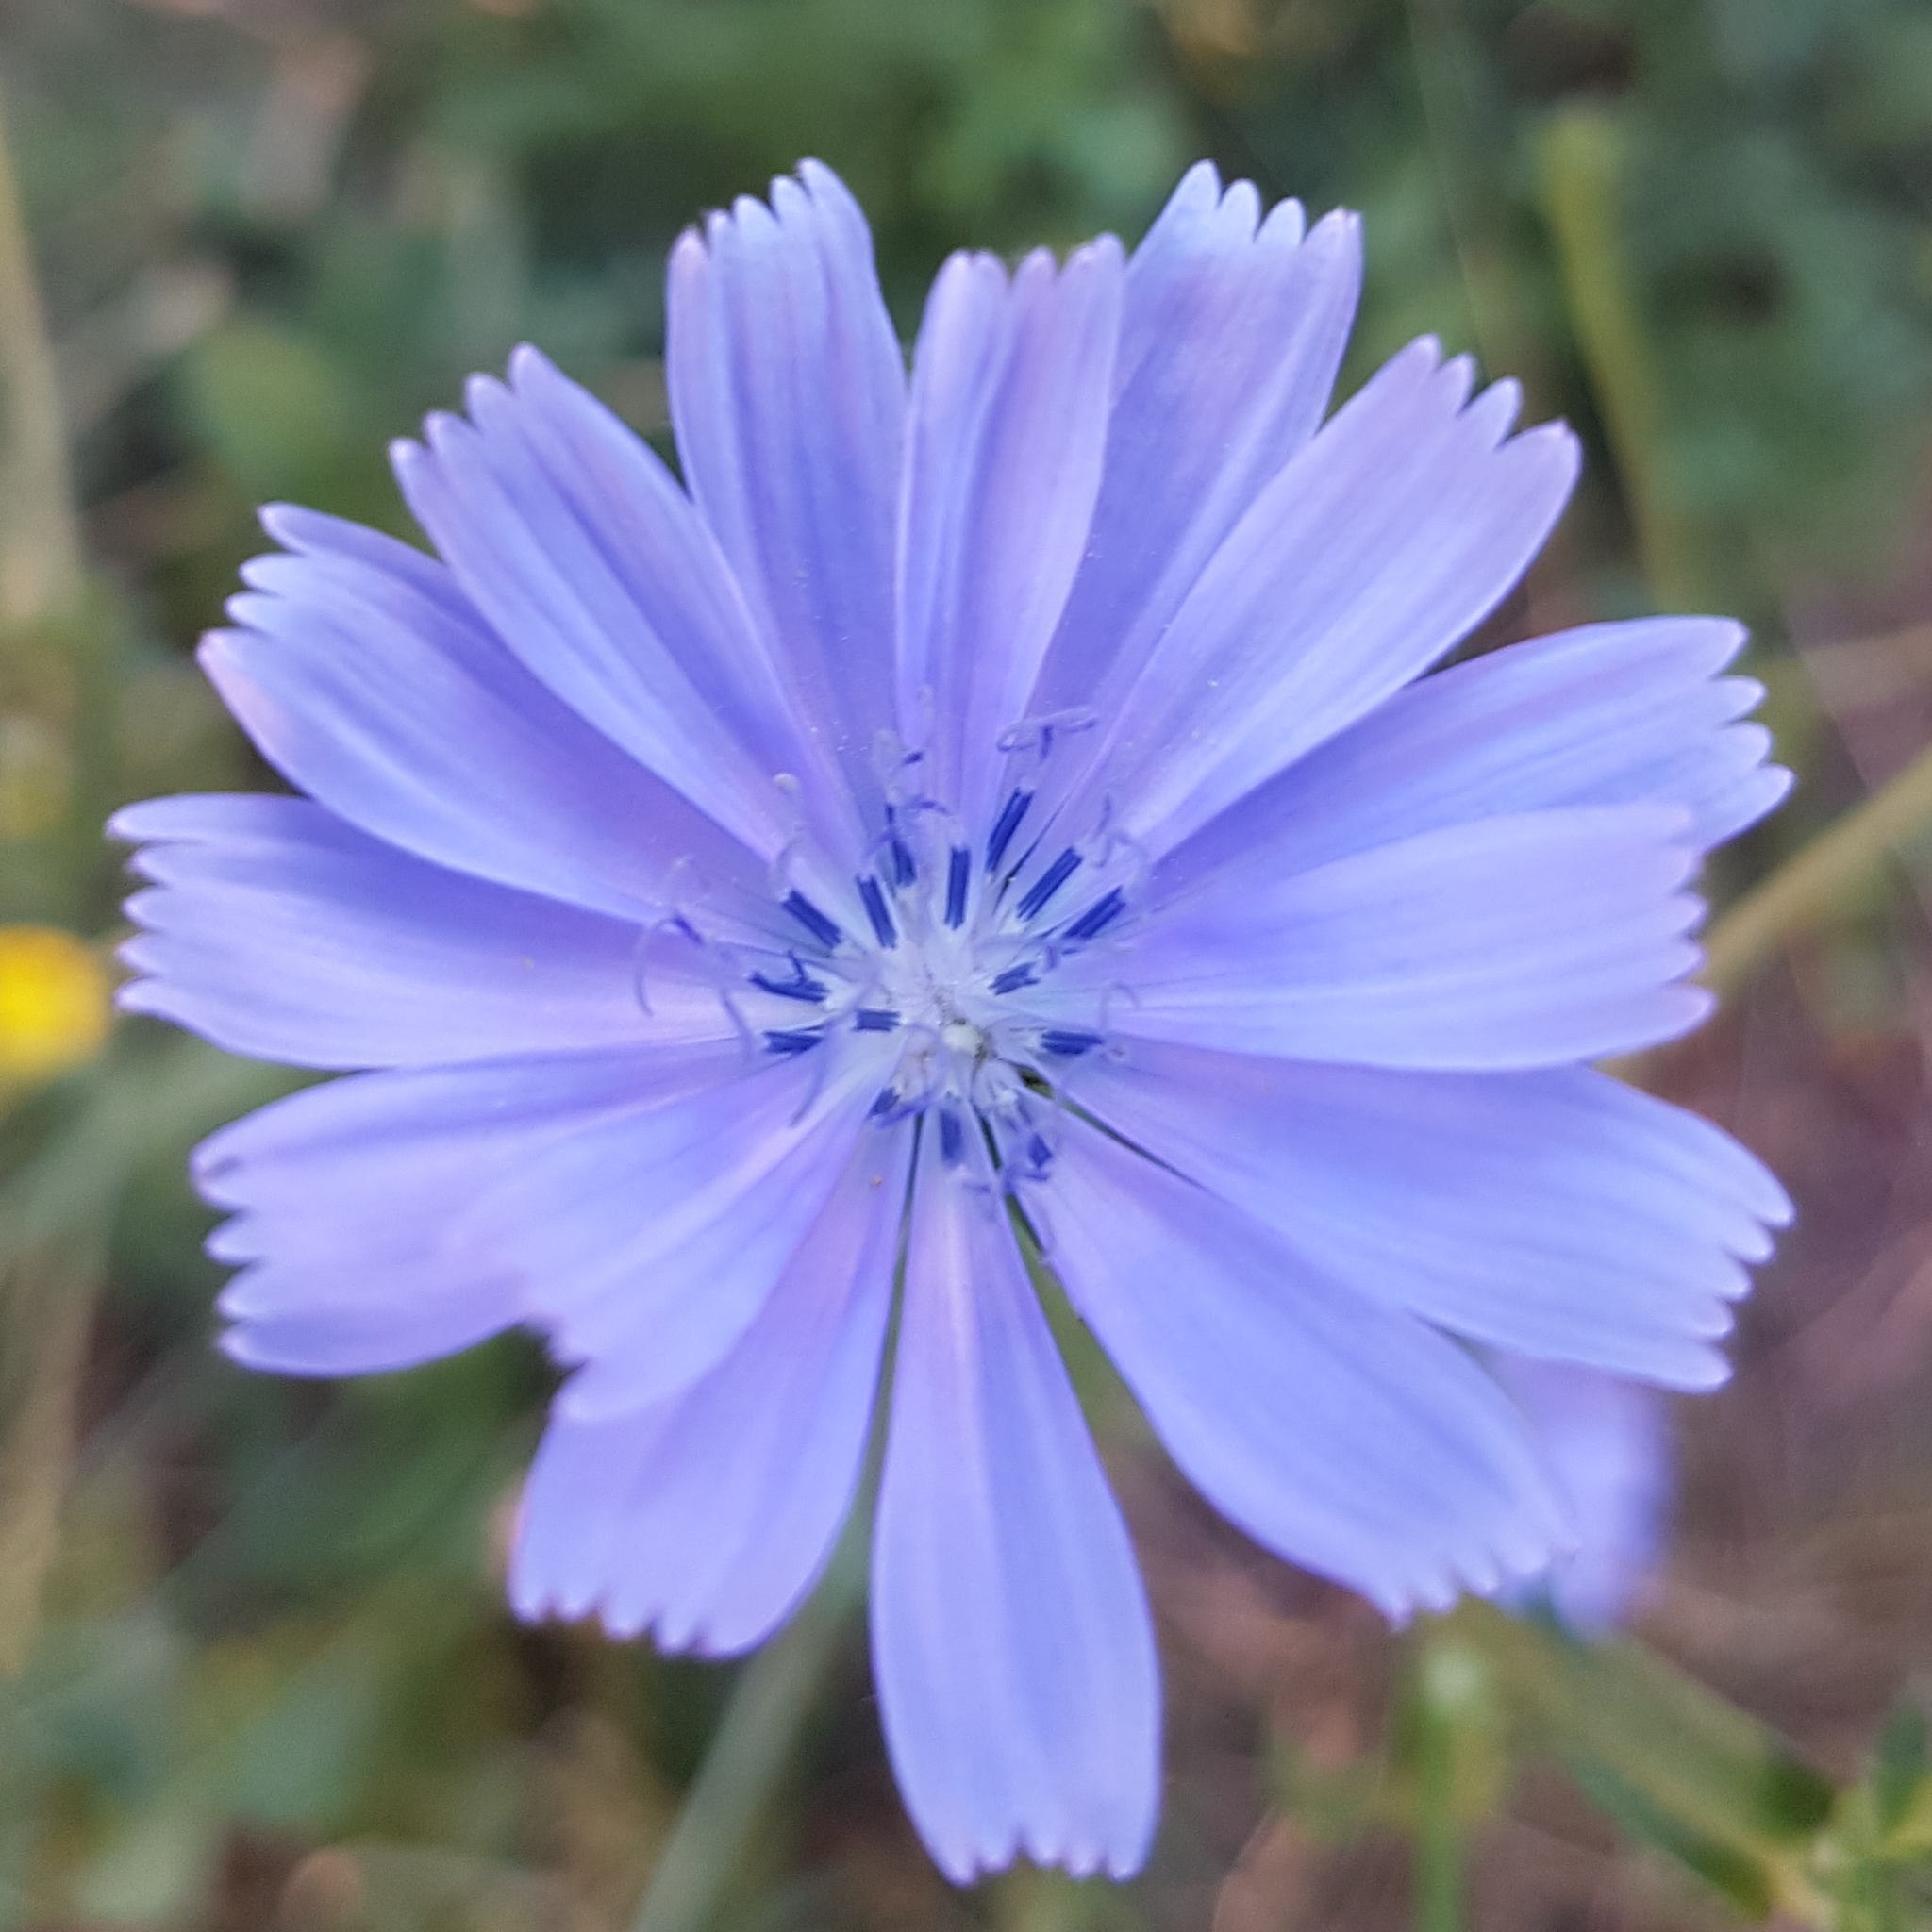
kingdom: Plantae
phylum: Tracheophyta
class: Magnoliopsida
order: Asterales
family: Asteraceae
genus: Cichorium
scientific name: Cichorium intybus
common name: Chicory
